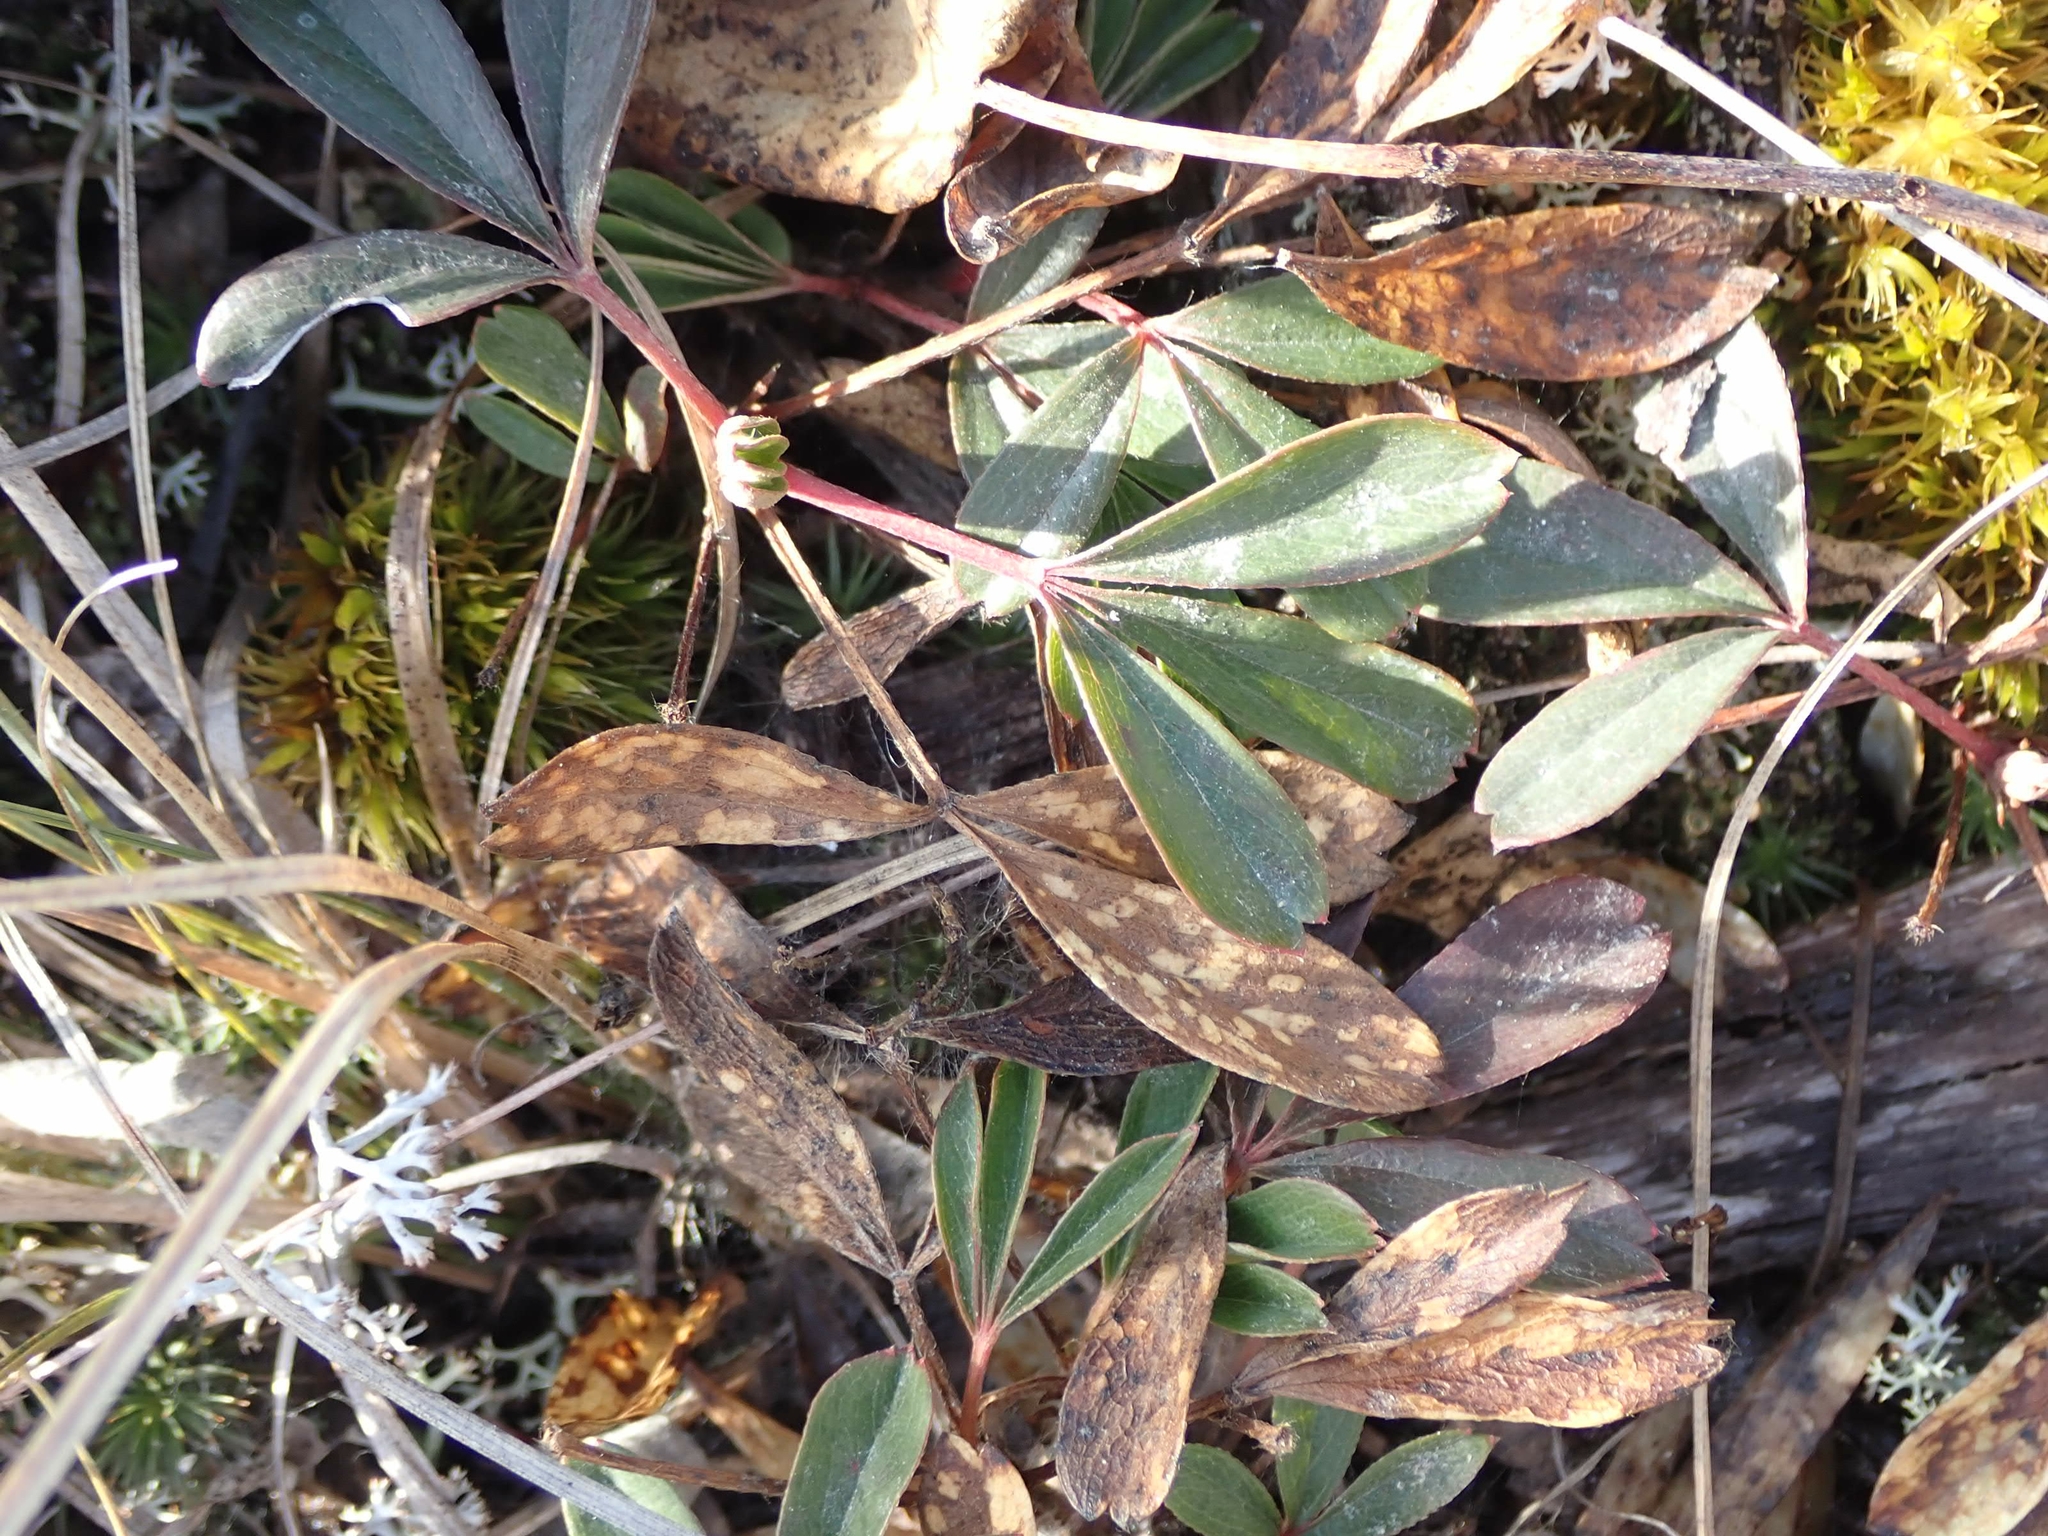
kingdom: Plantae
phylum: Tracheophyta
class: Magnoliopsida
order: Rosales
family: Rosaceae
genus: Sibbaldia
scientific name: Sibbaldia tridentata
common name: Three-toothed cinquefoil
